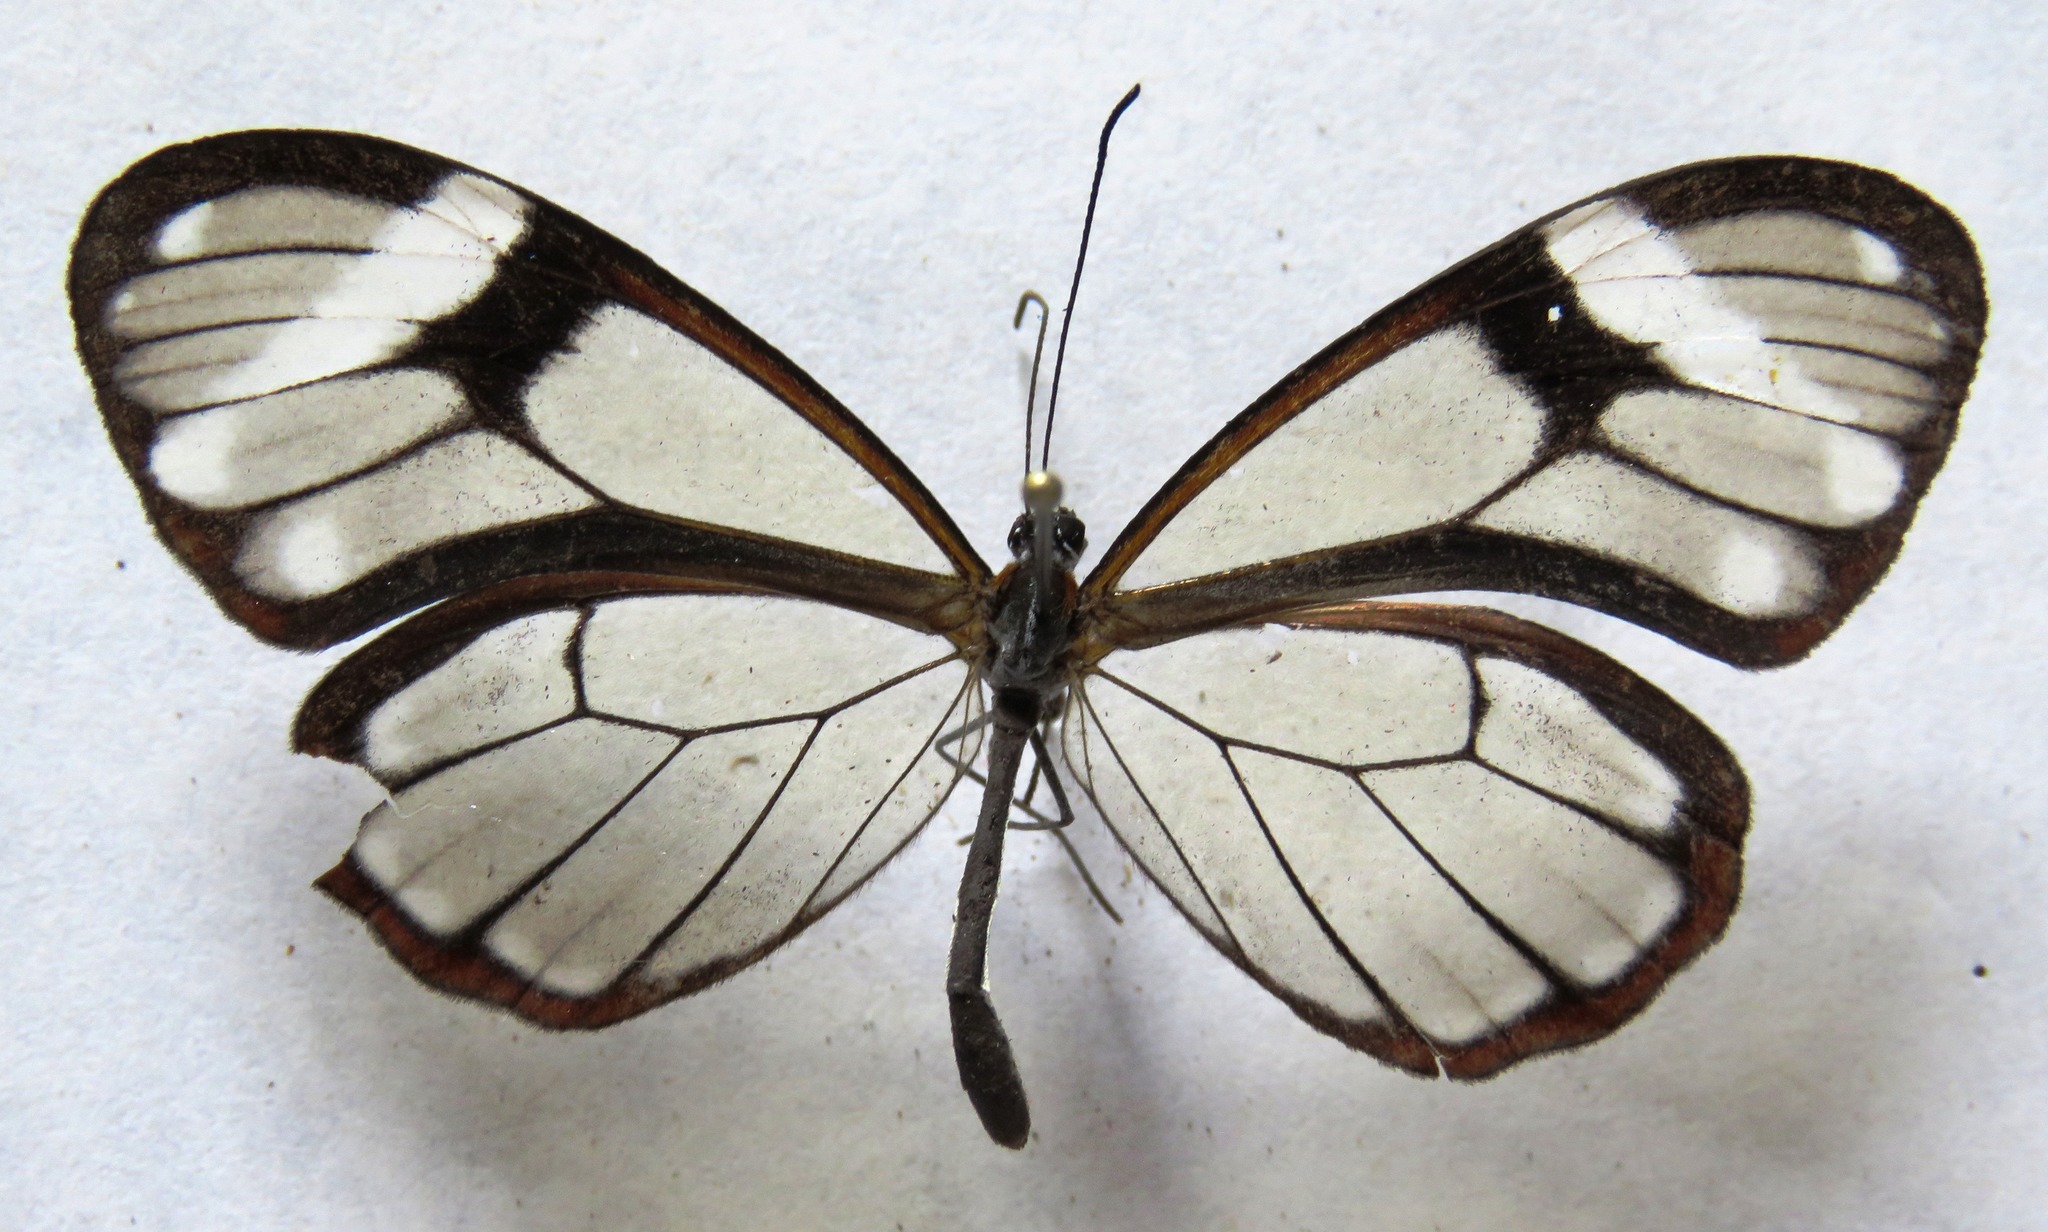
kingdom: Animalia
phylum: Arthropoda
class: Insecta
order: Lepidoptera
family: Nymphalidae
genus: Godyris
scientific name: Godyris nero
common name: Nero clearwing
